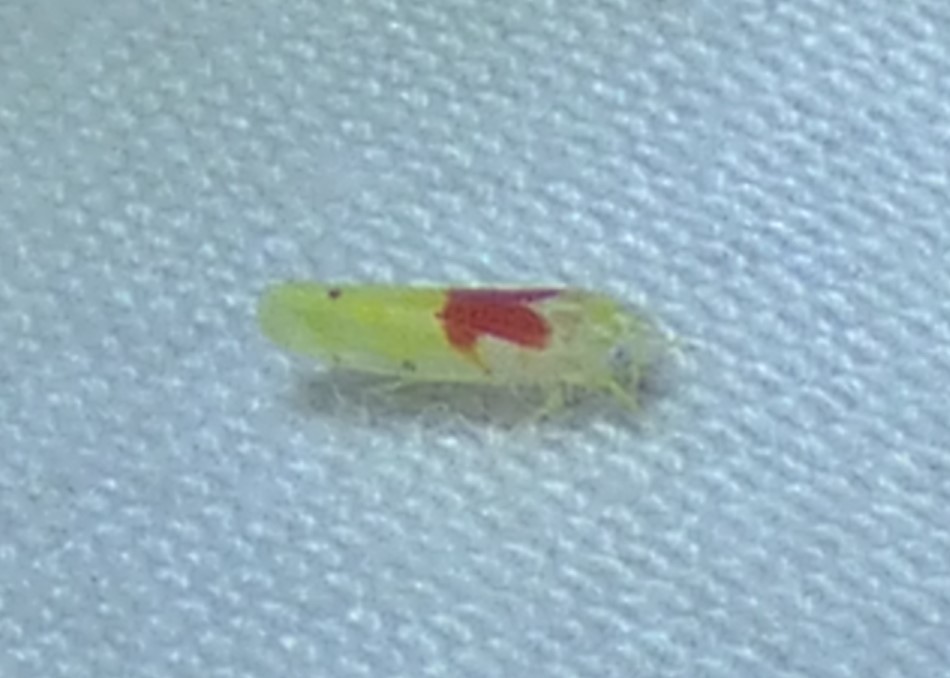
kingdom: Animalia
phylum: Arthropoda
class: Insecta
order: Hemiptera
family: Cicadellidae
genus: Eratoneura
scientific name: Eratoneura bella
